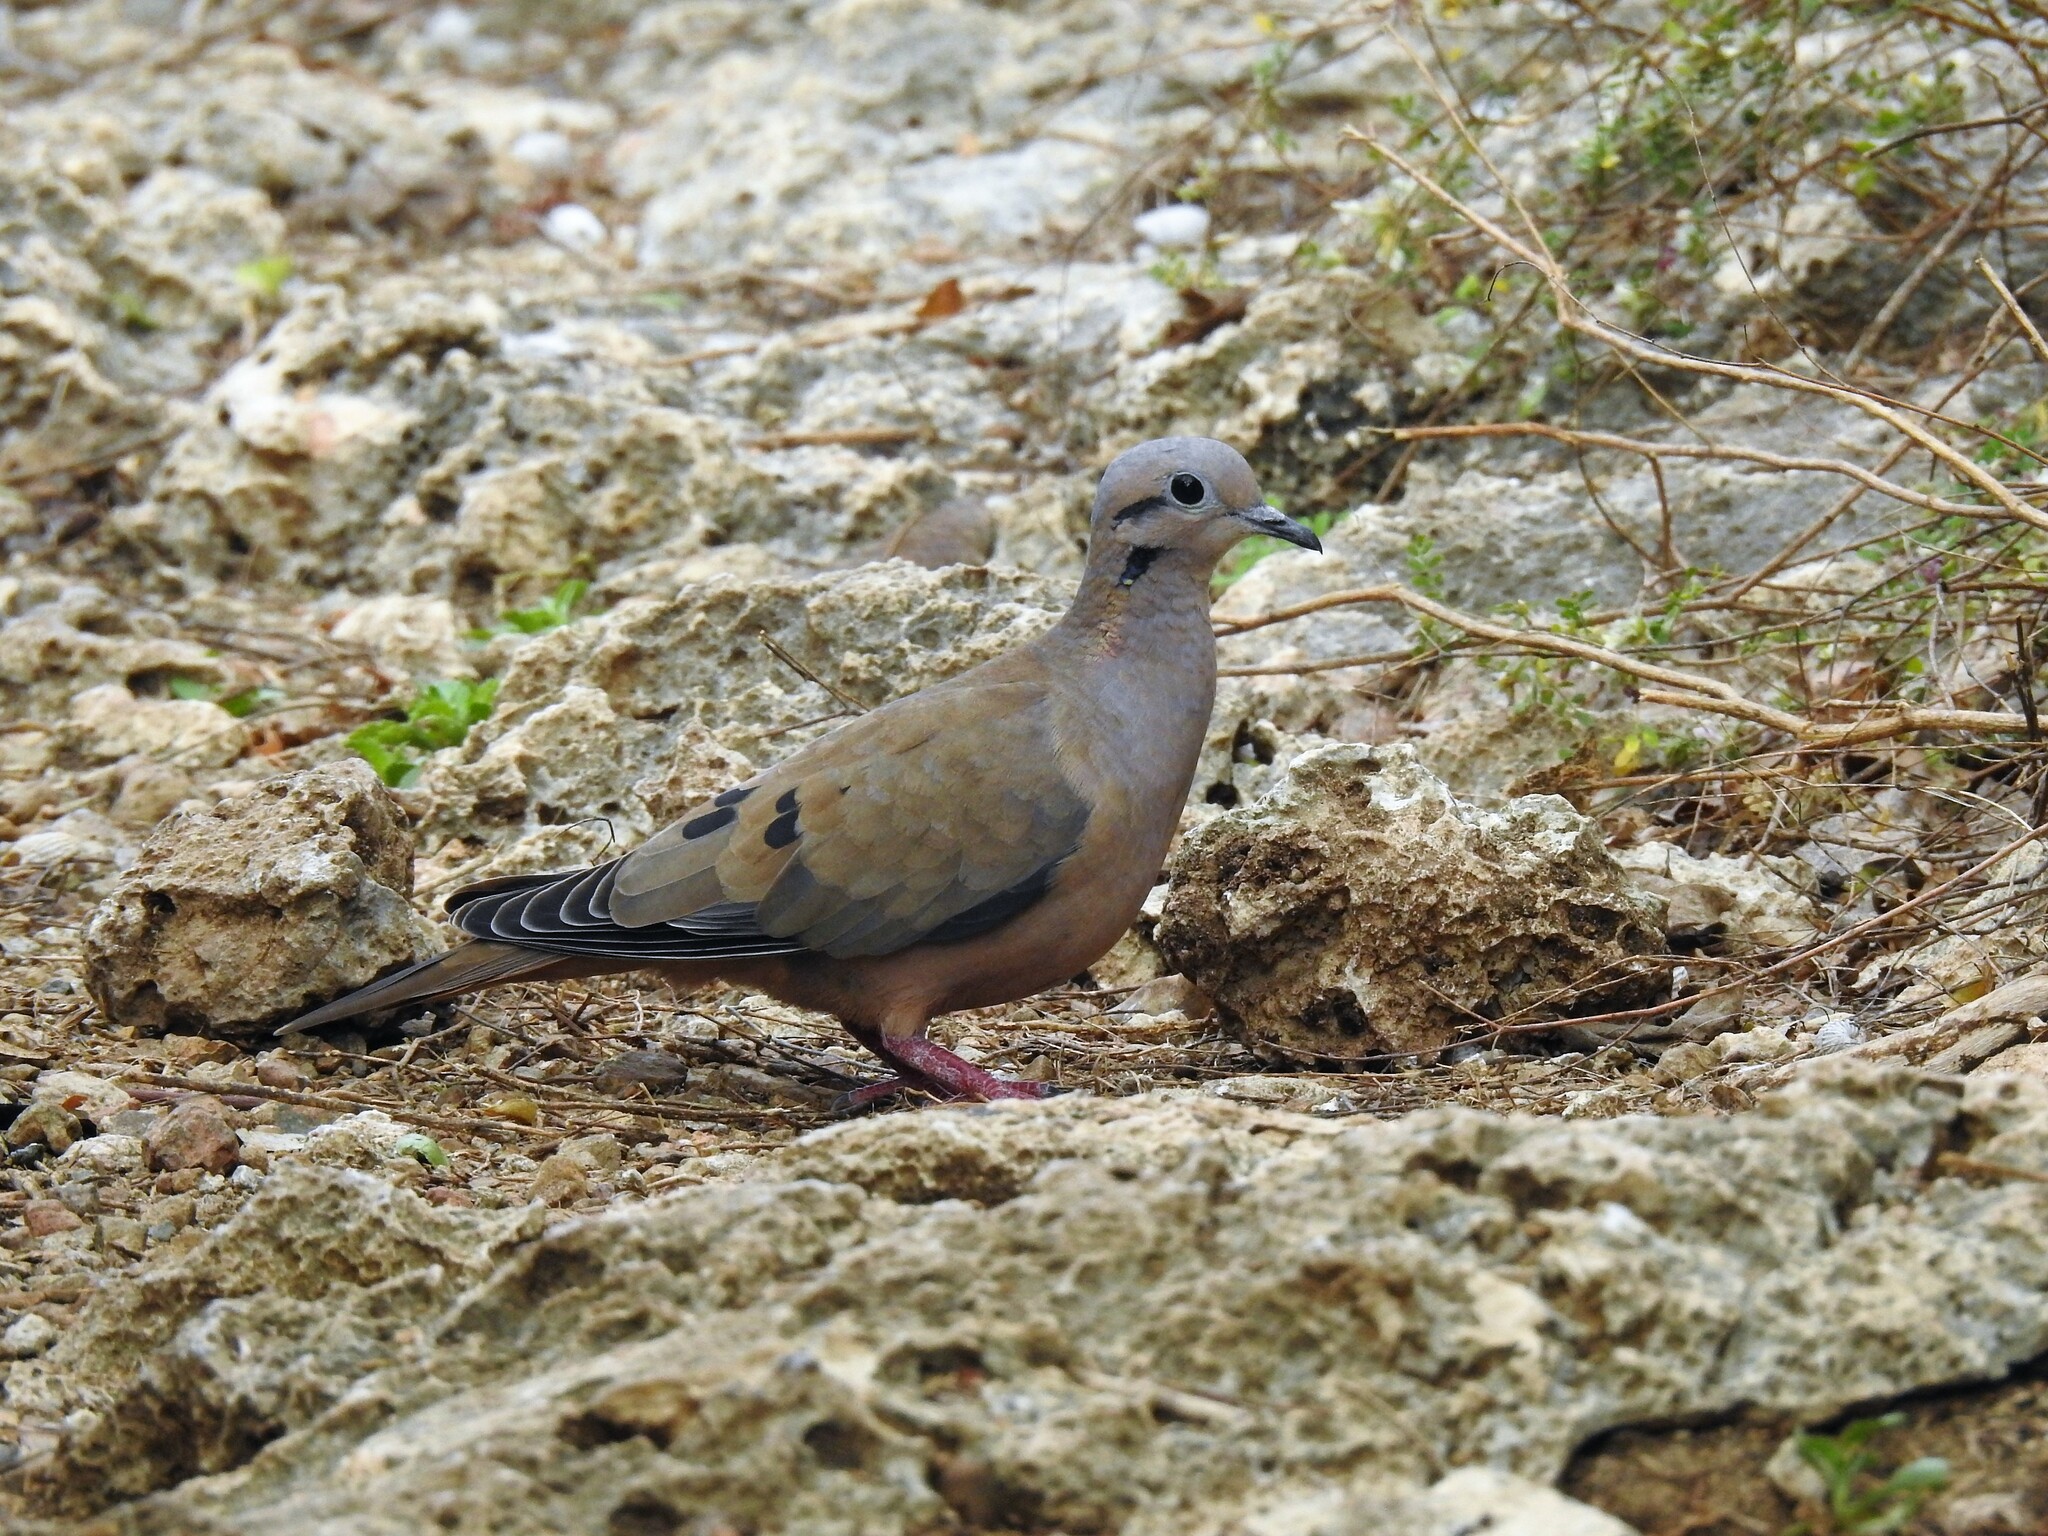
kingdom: Animalia
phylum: Chordata
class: Aves
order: Columbiformes
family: Columbidae
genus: Zenaida
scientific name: Zenaida auriculata
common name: Eared dove
